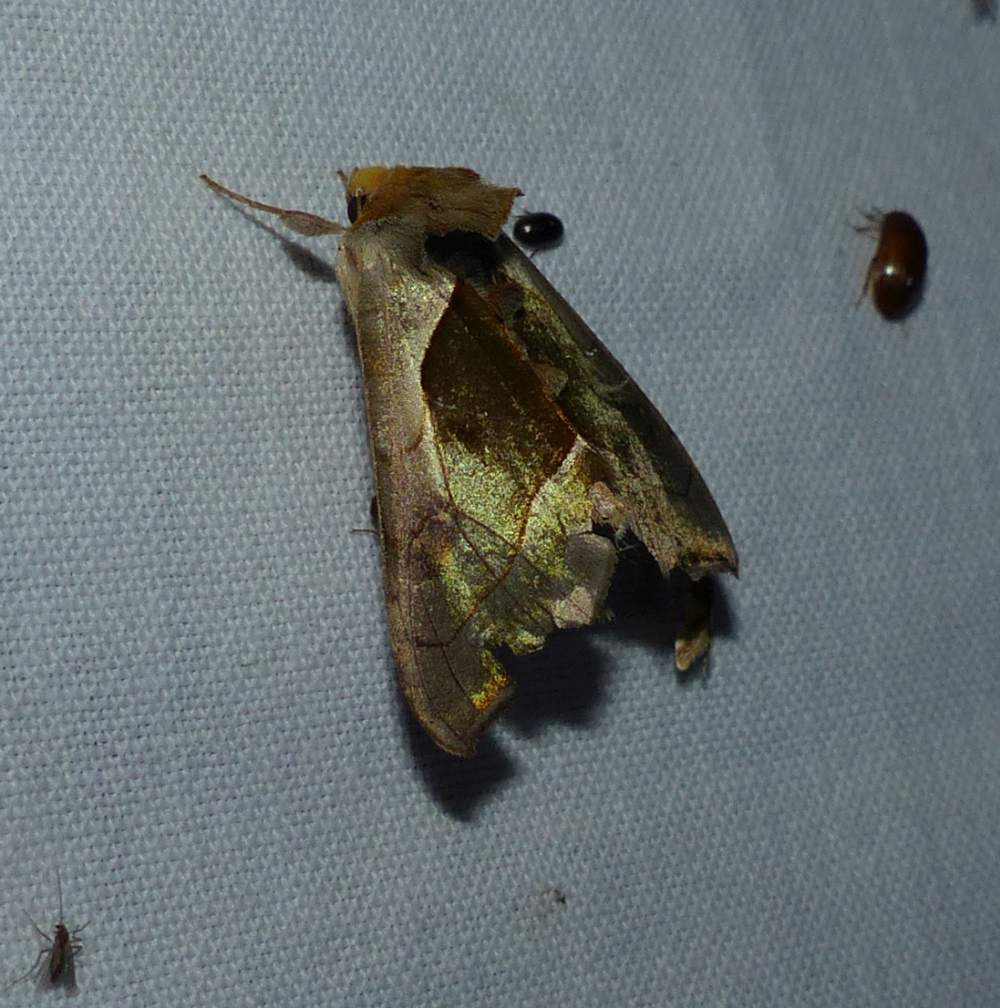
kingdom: Animalia
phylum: Arthropoda
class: Insecta
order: Lepidoptera
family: Noctuidae
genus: Diachrysia
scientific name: Diachrysia balluca
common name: Green-patched looper moth
